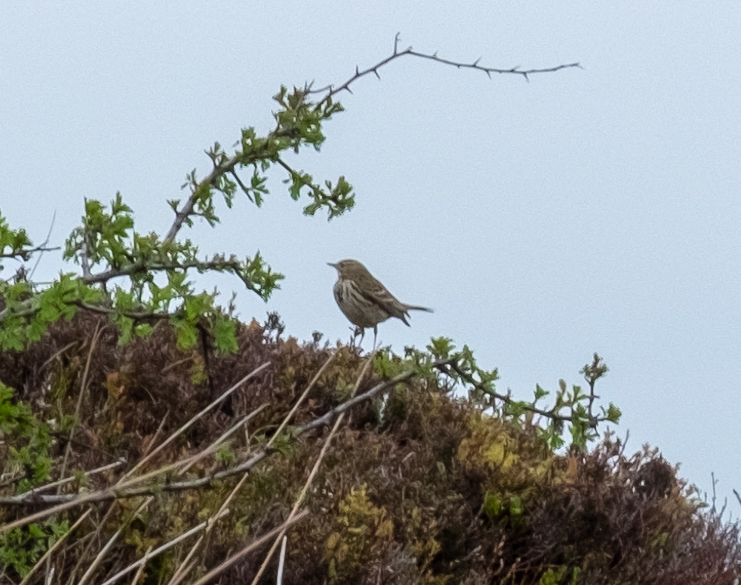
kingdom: Animalia
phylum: Chordata
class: Aves
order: Passeriformes
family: Motacillidae
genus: Anthus
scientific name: Anthus pratensis
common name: Meadow pipit
